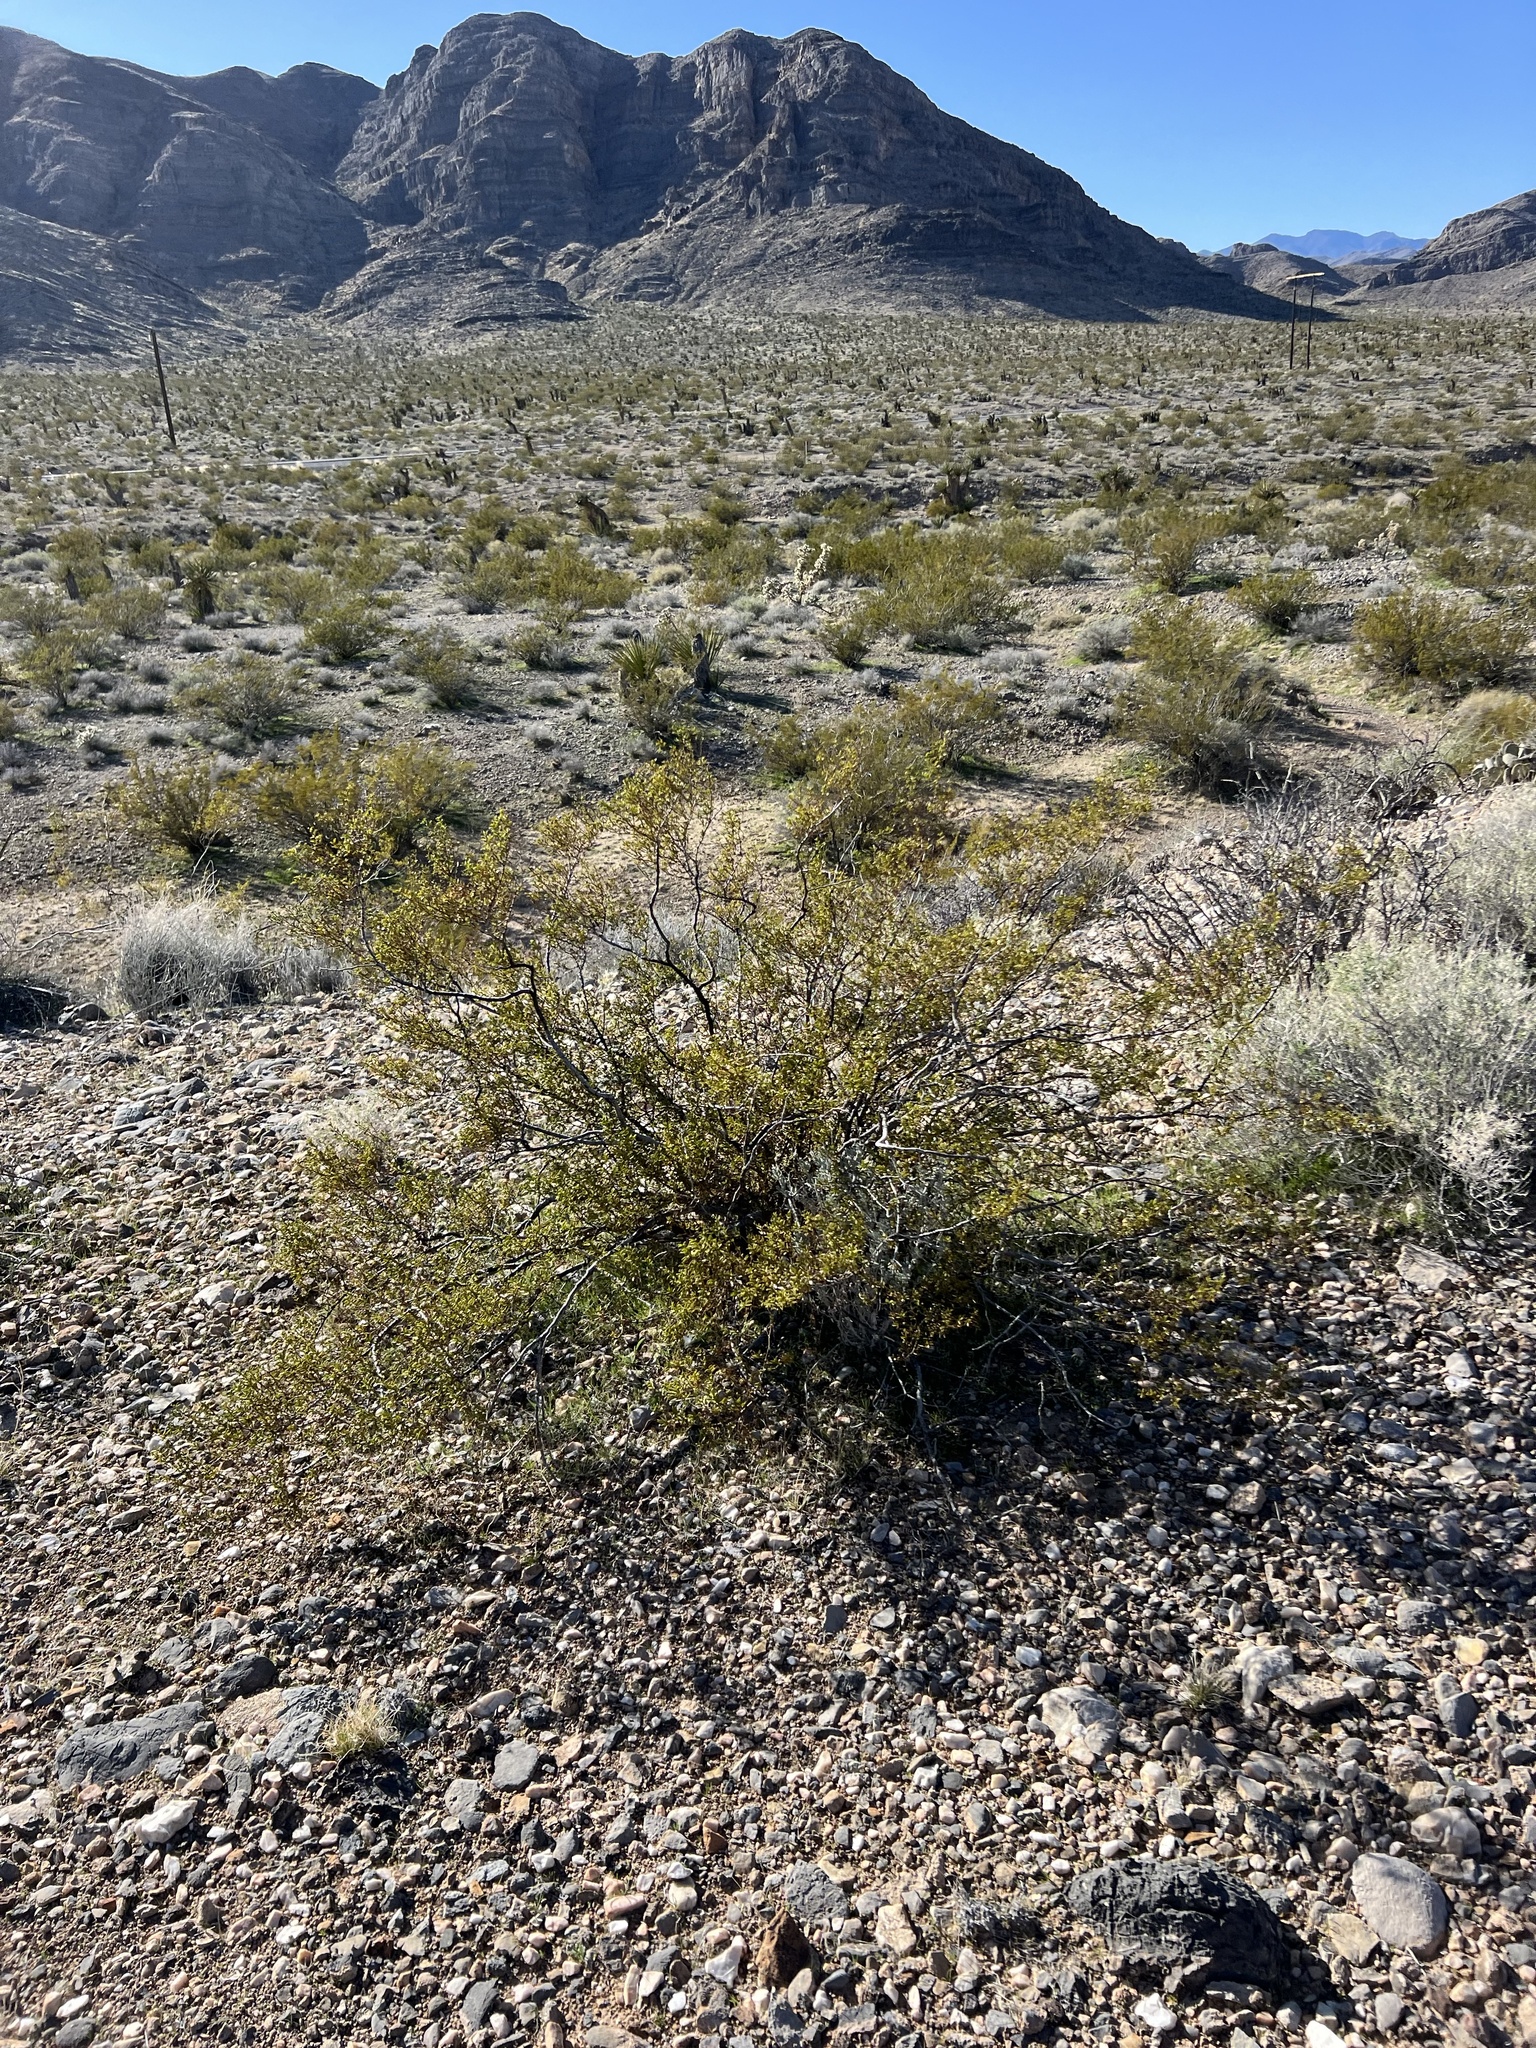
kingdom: Plantae
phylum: Tracheophyta
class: Magnoliopsida
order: Zygophyllales
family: Zygophyllaceae
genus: Larrea
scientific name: Larrea tridentata
